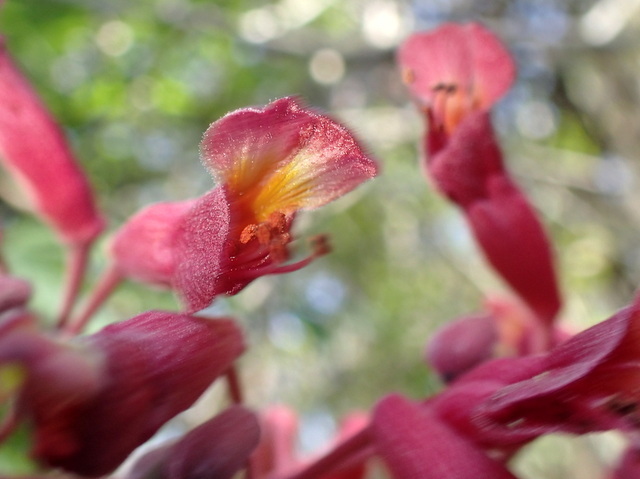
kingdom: Plantae
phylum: Tracheophyta
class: Magnoliopsida
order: Sapindales
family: Sapindaceae
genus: Aesculus
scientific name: Aesculus pavia
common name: Red buckeye
